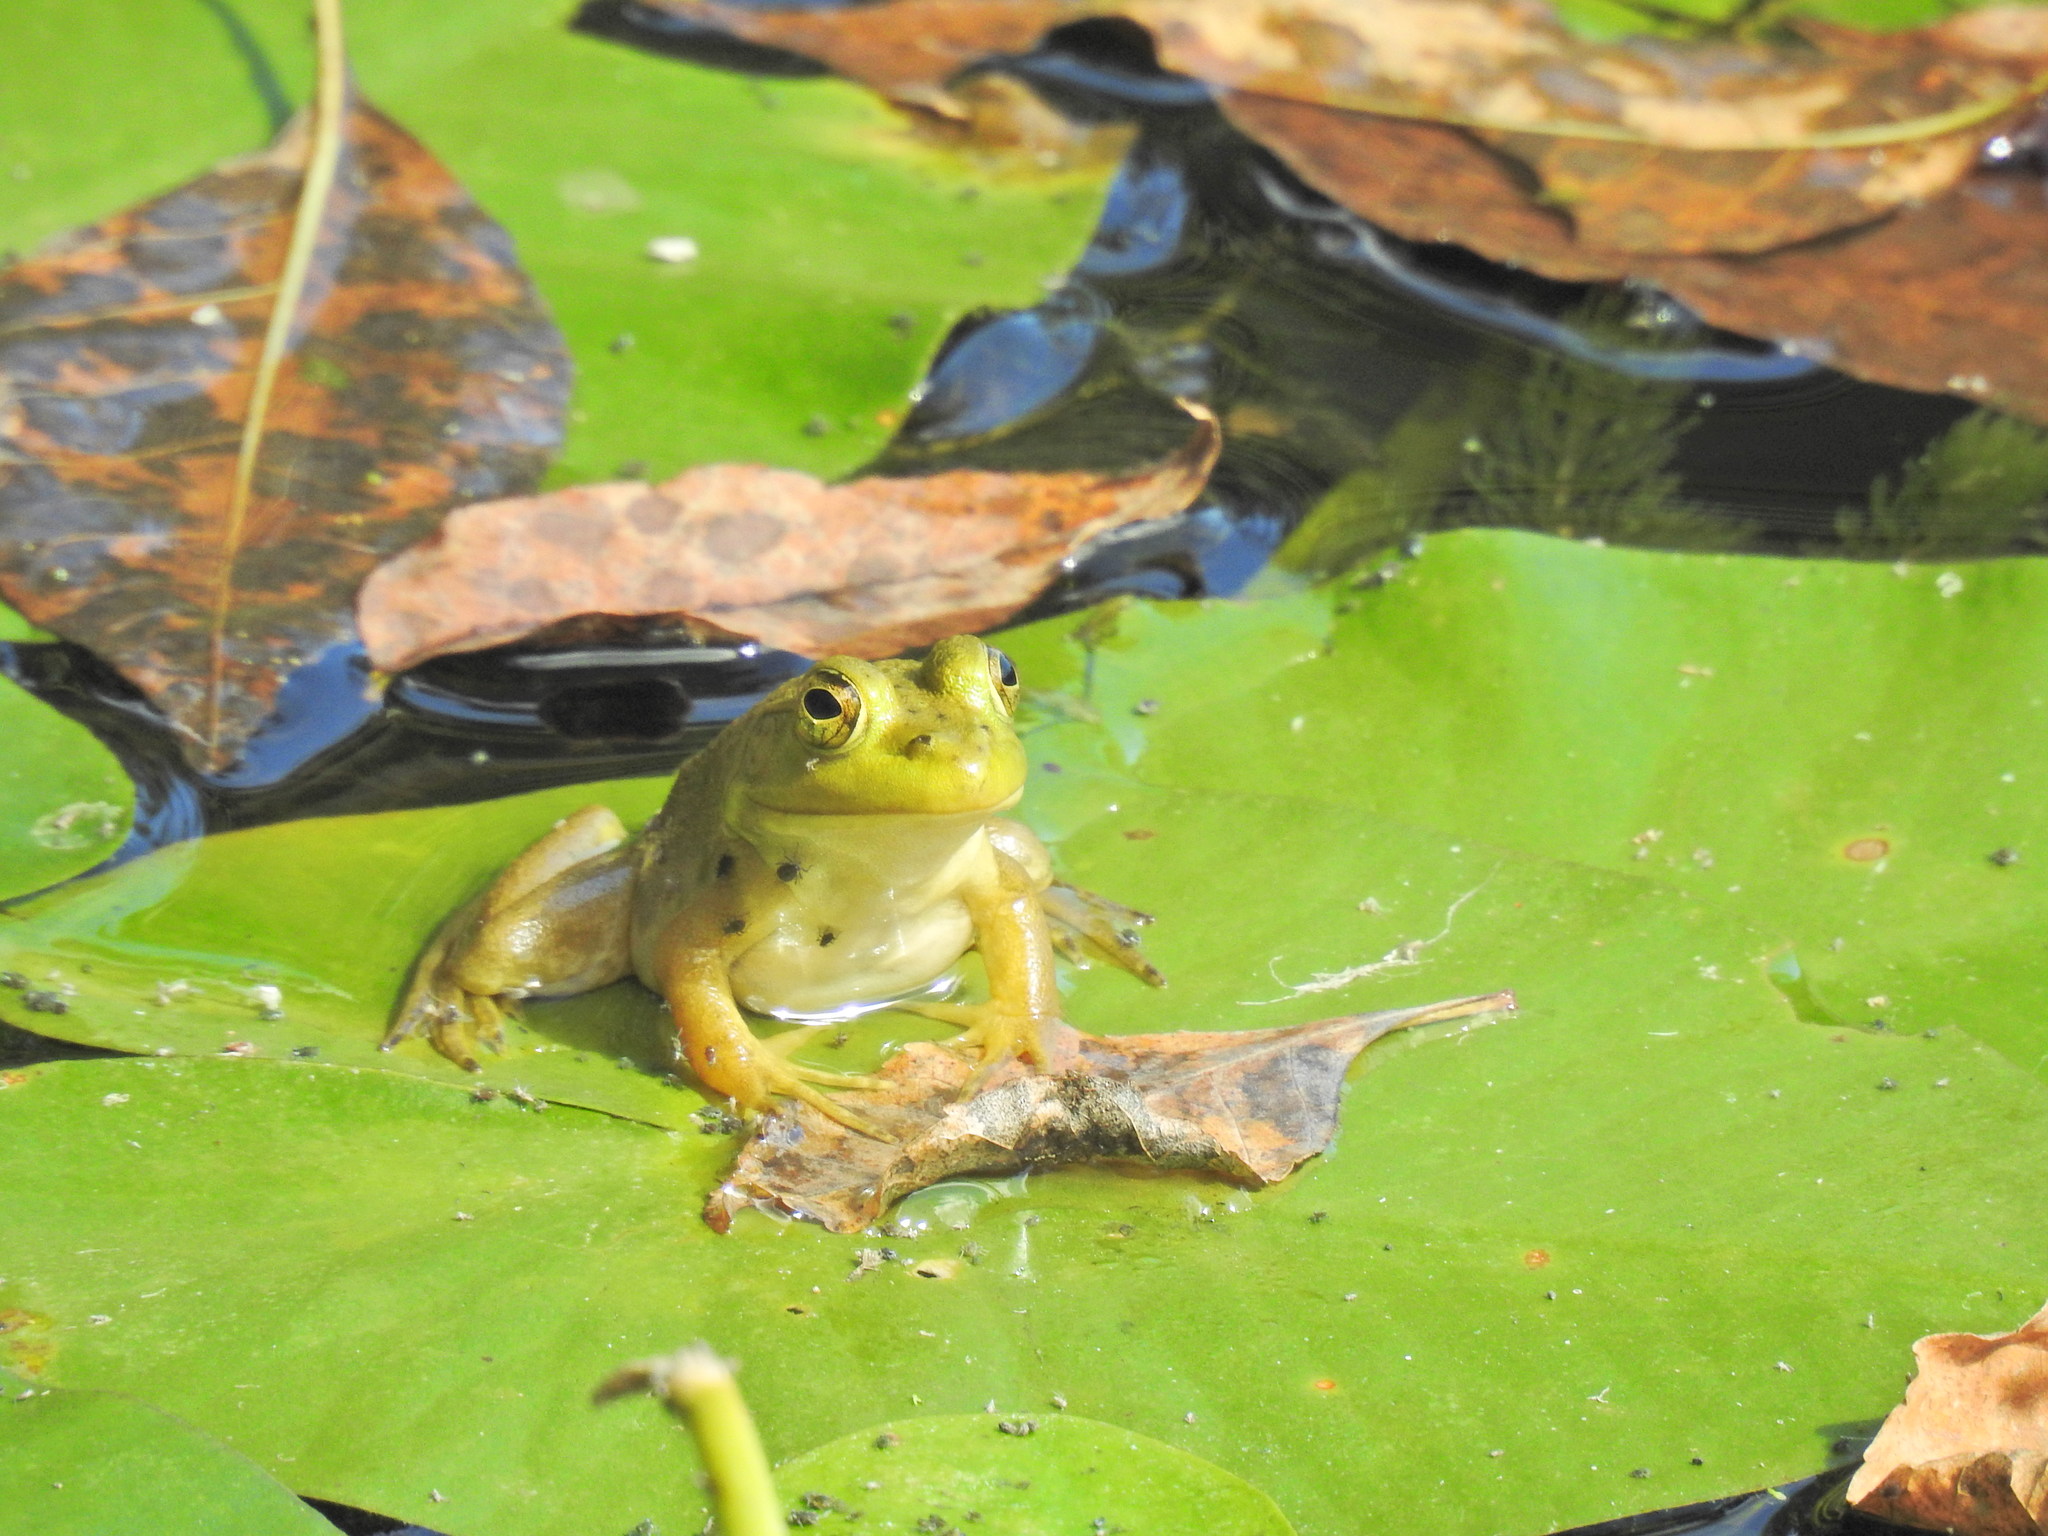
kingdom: Animalia
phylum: Chordata
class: Amphibia
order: Anura
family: Ranidae
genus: Lithobates
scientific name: Lithobates catesbeianus
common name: American bullfrog
